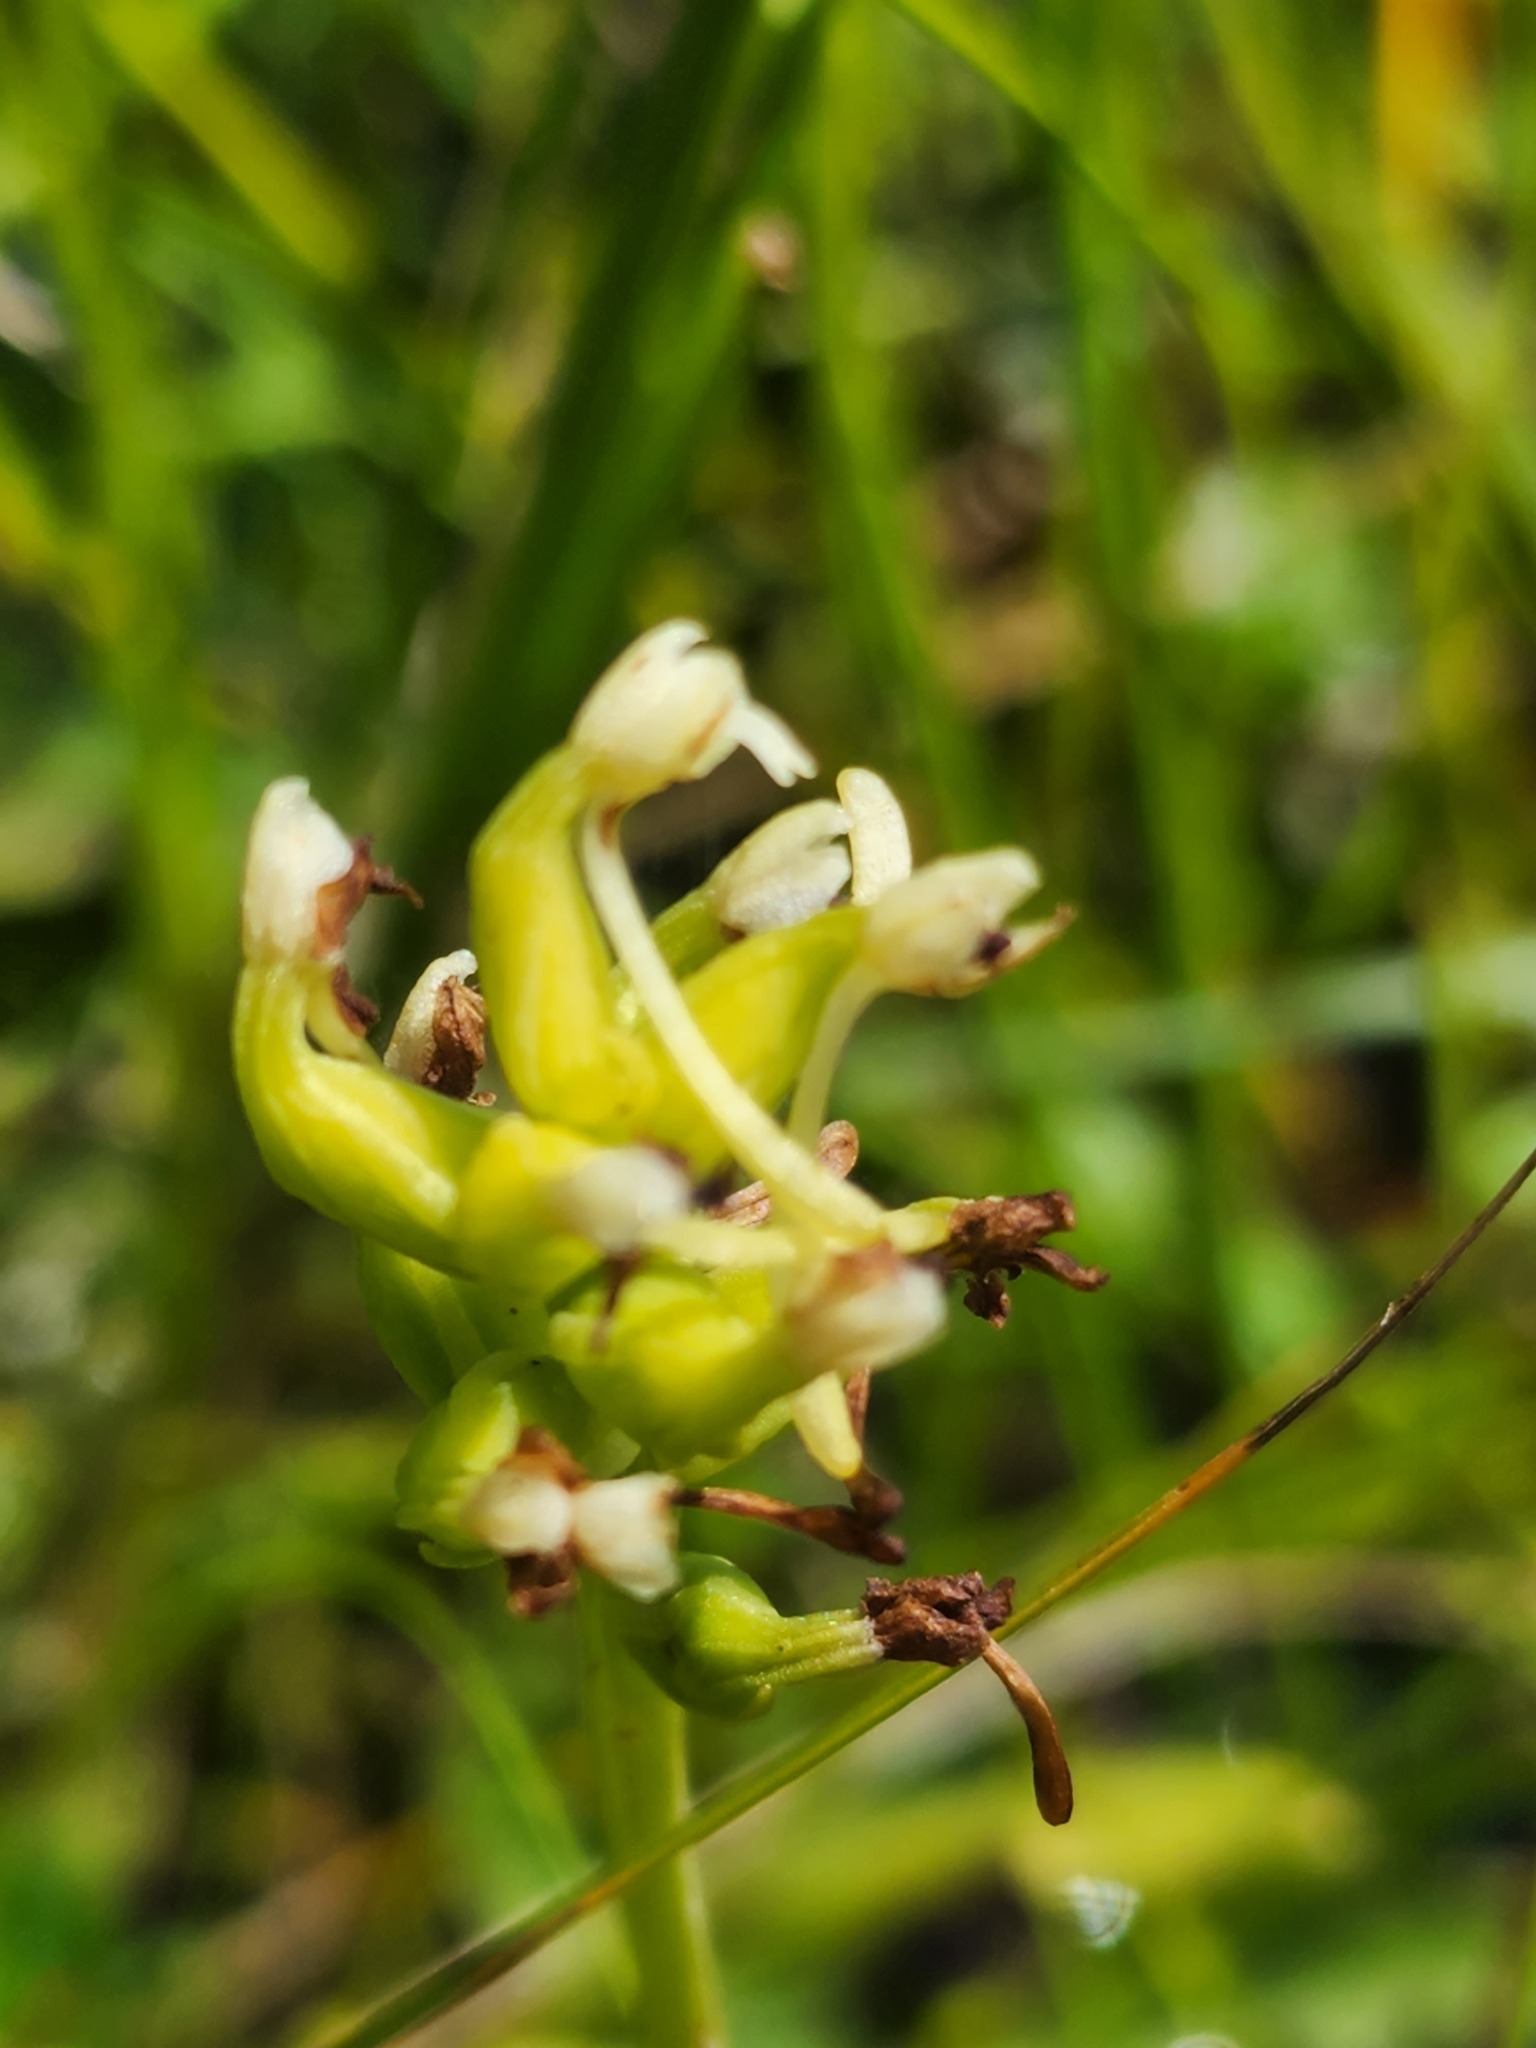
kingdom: Plantae
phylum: Tracheophyta
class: Liliopsida
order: Asparagales
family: Orchidaceae
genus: Platanthera
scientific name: Platanthera clavellata
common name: Club-spur orchid
